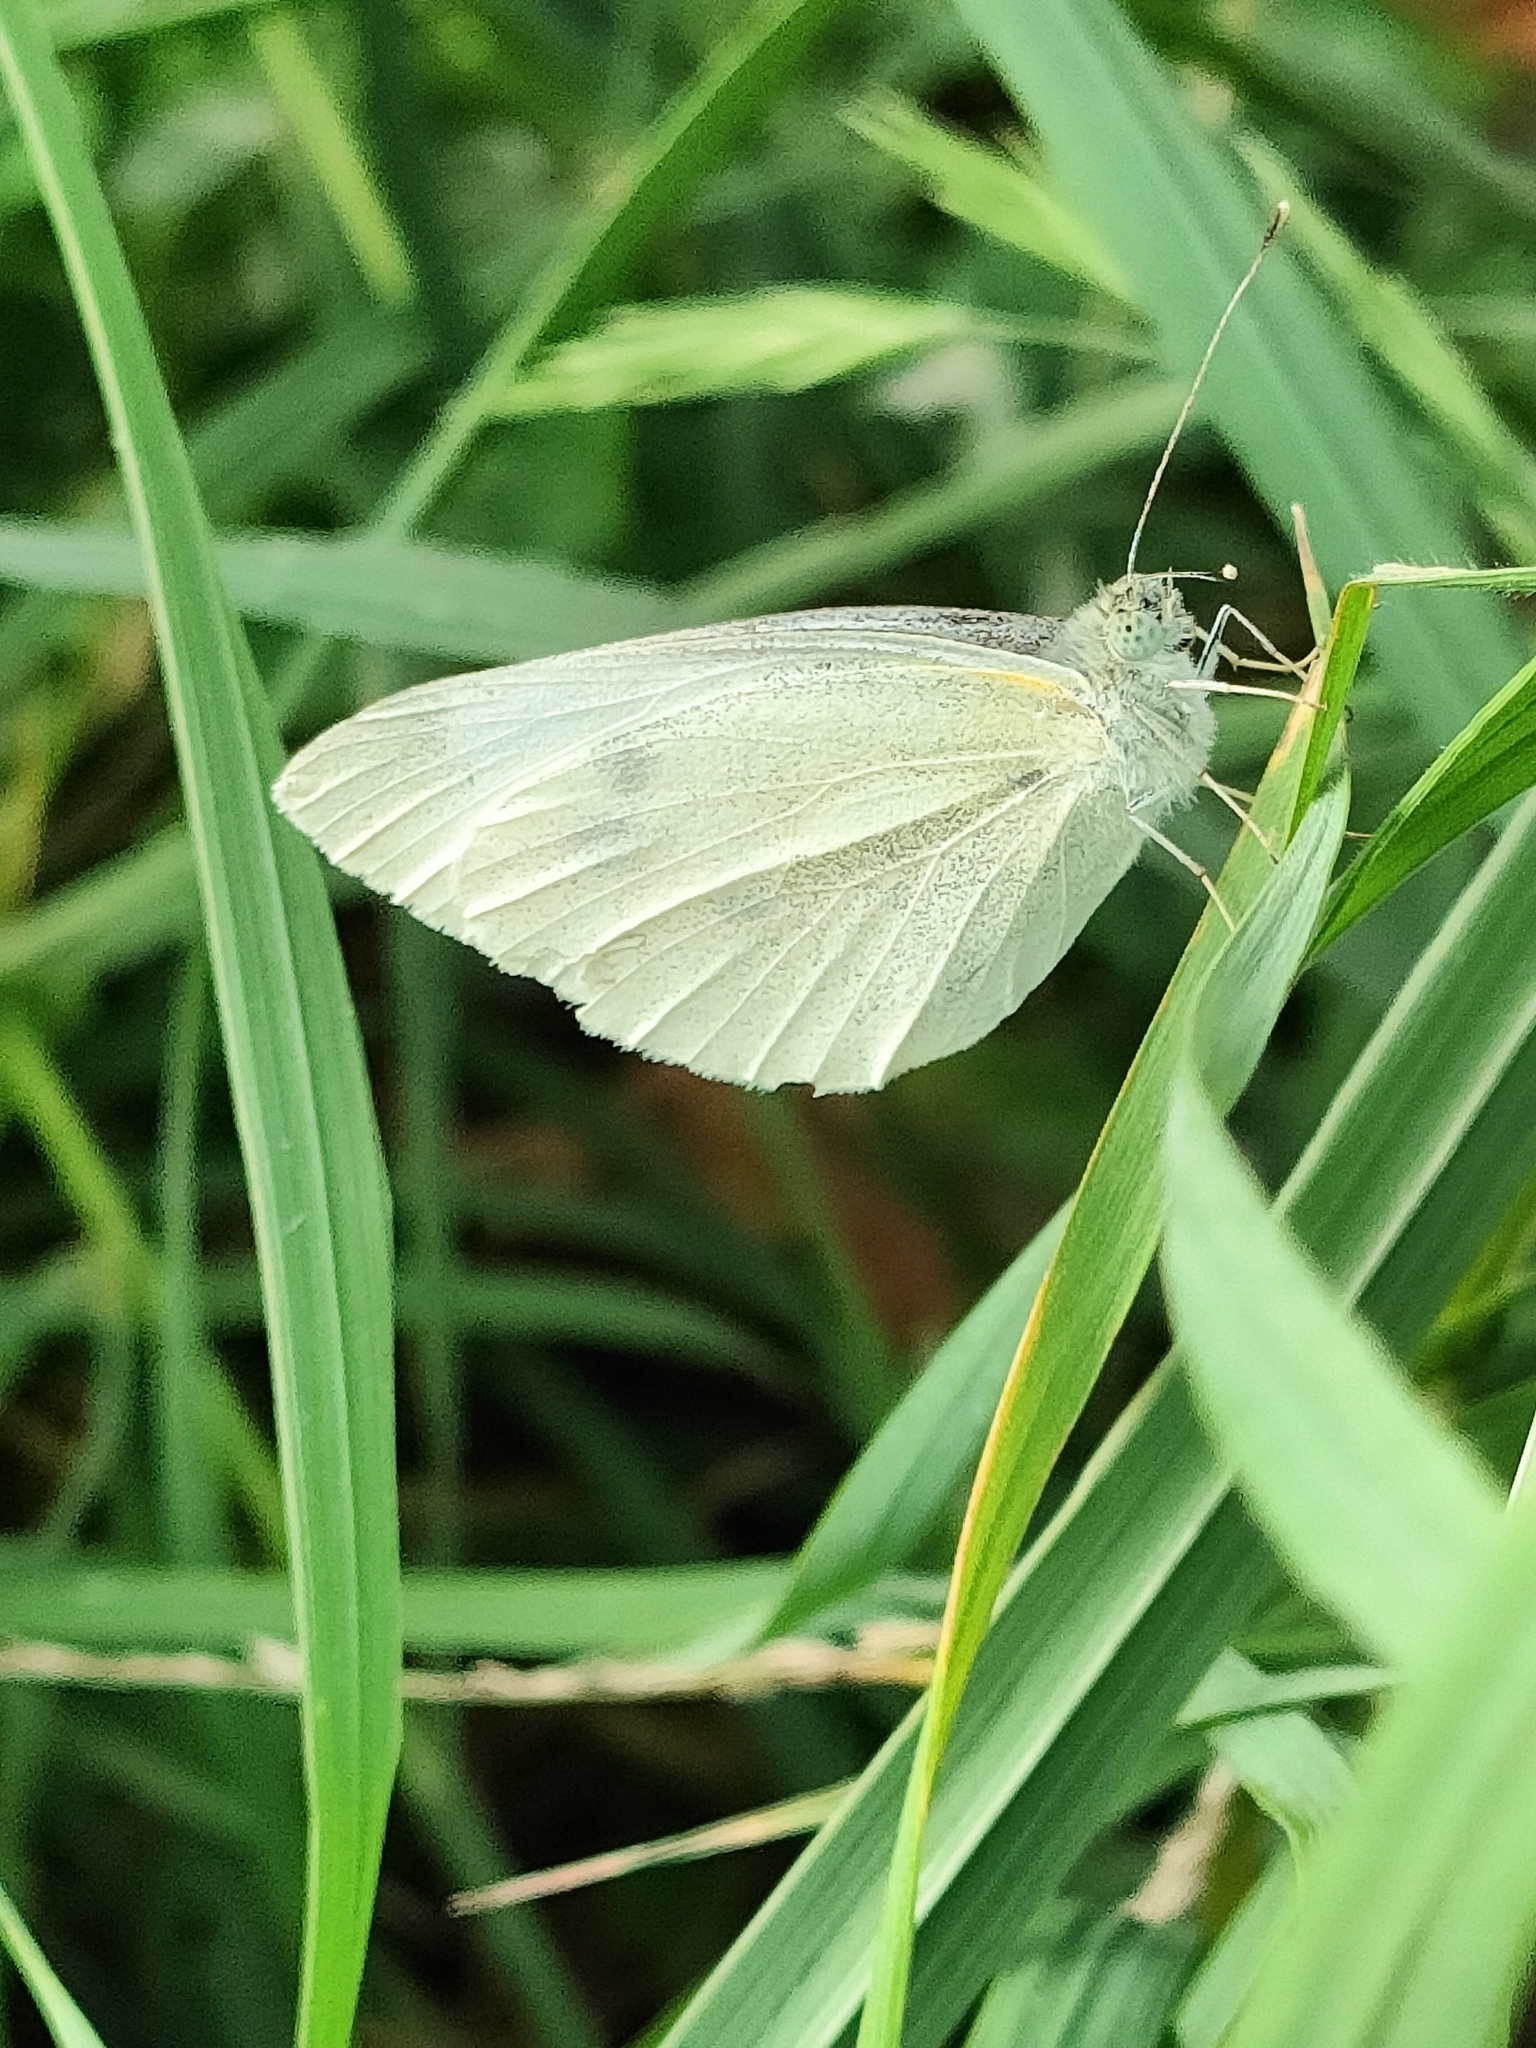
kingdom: Animalia
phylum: Arthropoda
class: Insecta
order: Lepidoptera
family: Pieridae
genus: Pieris
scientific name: Pieris rapae
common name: Small white
